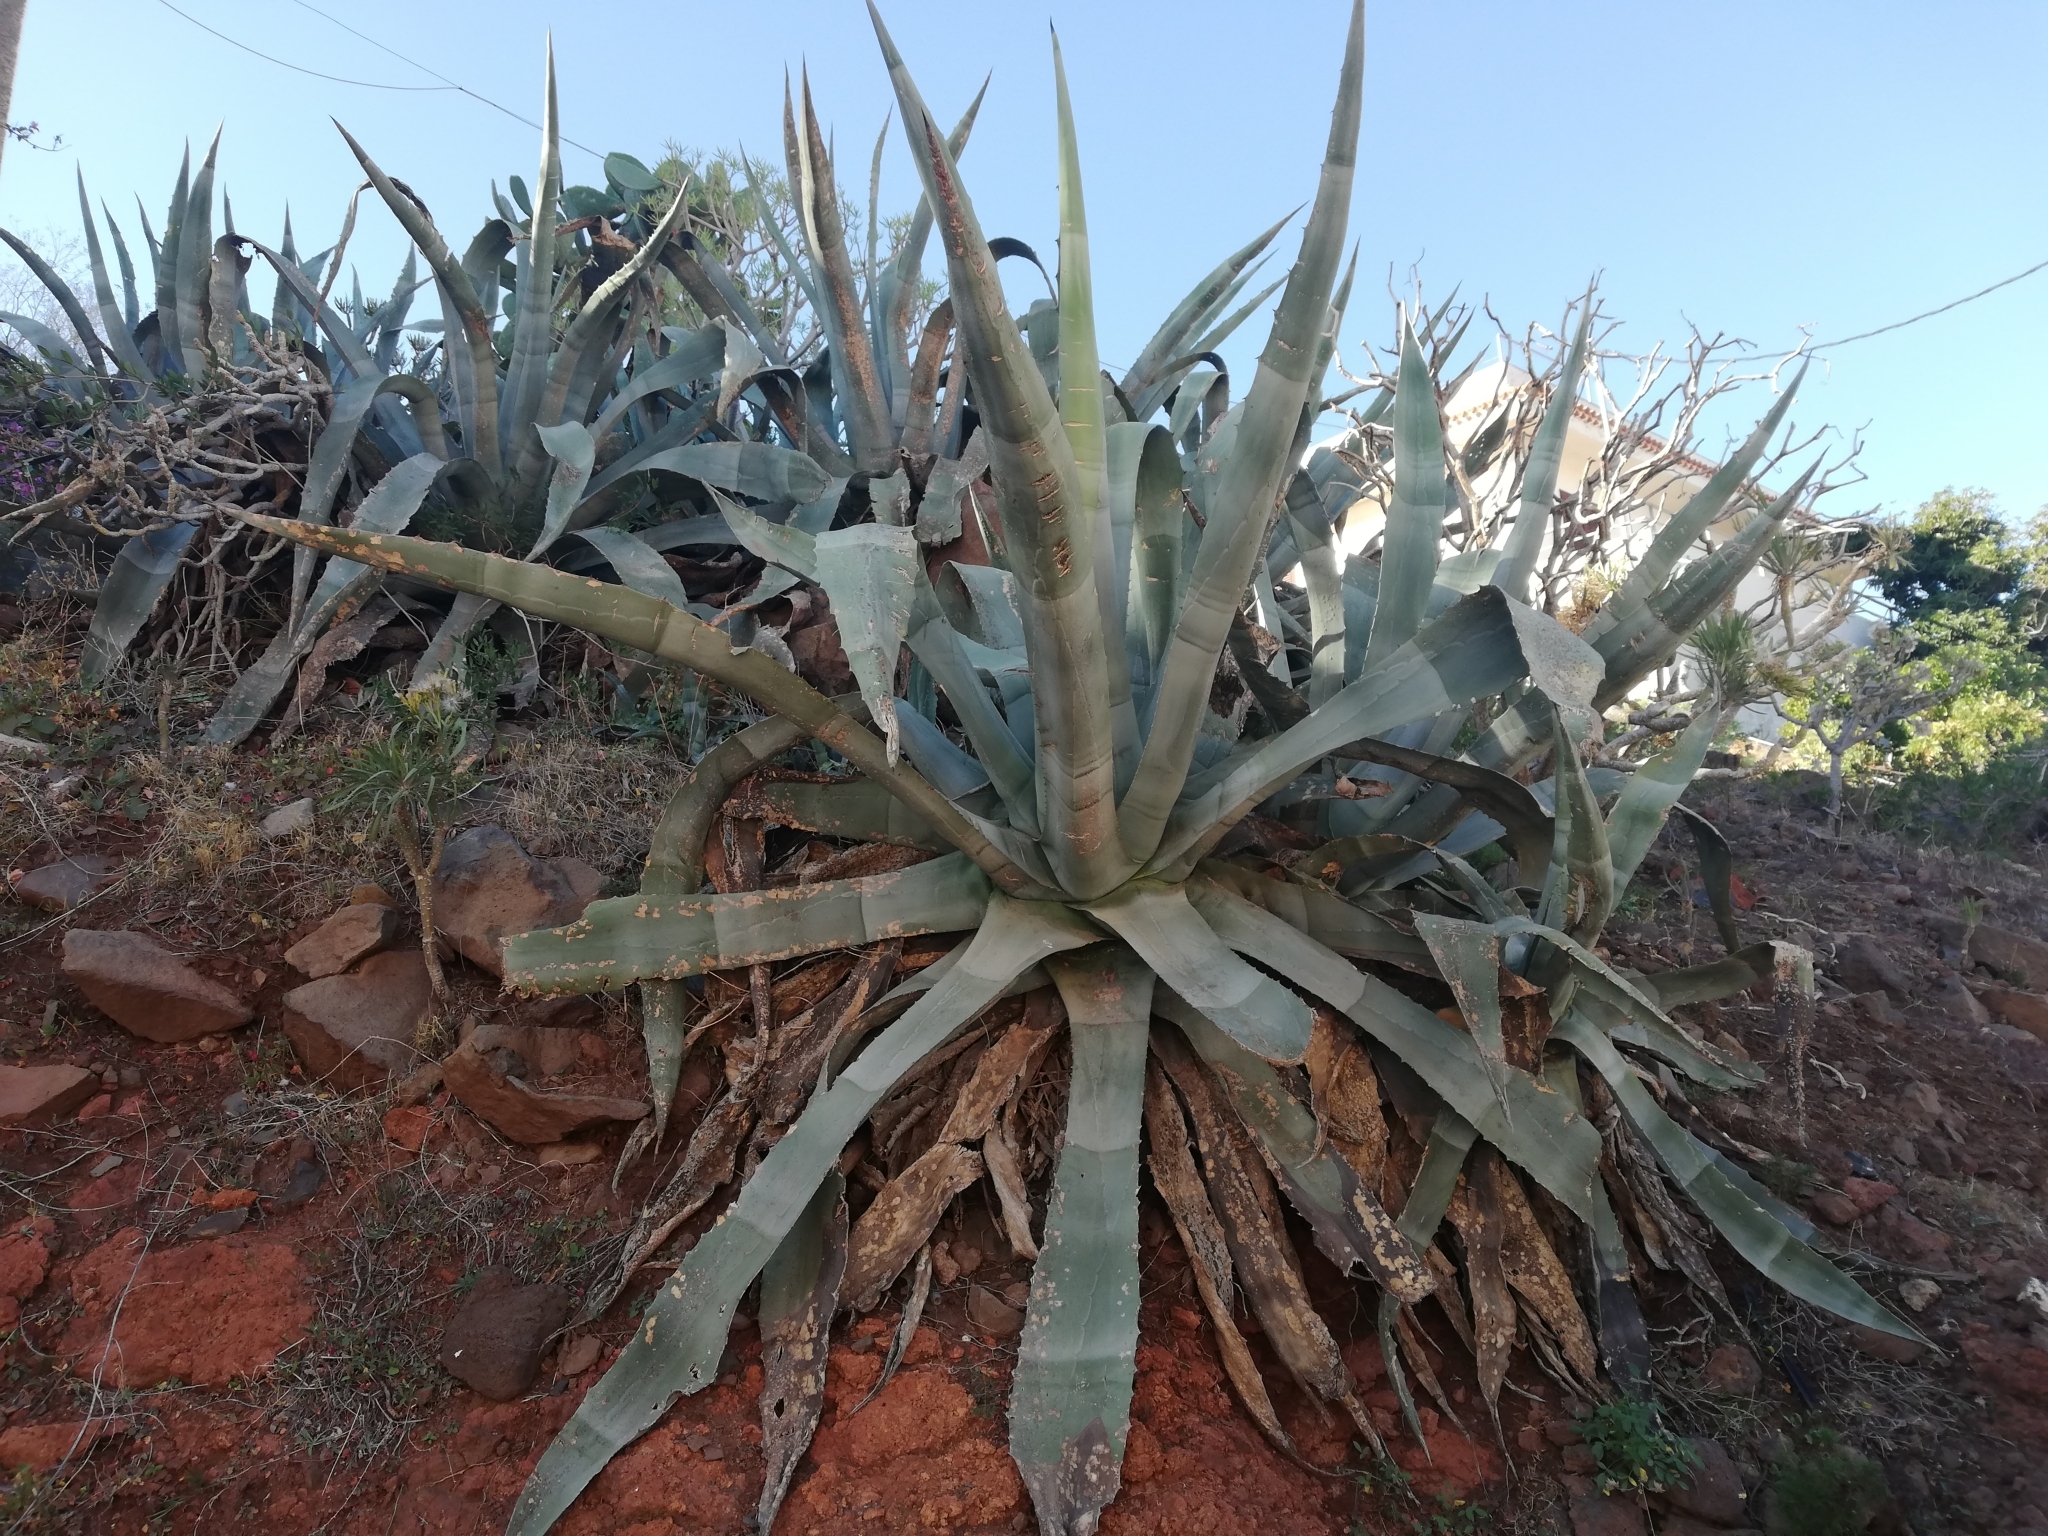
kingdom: Plantae
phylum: Tracheophyta
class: Liliopsida
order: Asparagales
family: Asparagaceae
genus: Agave
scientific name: Agave americana
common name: Centuryplant
